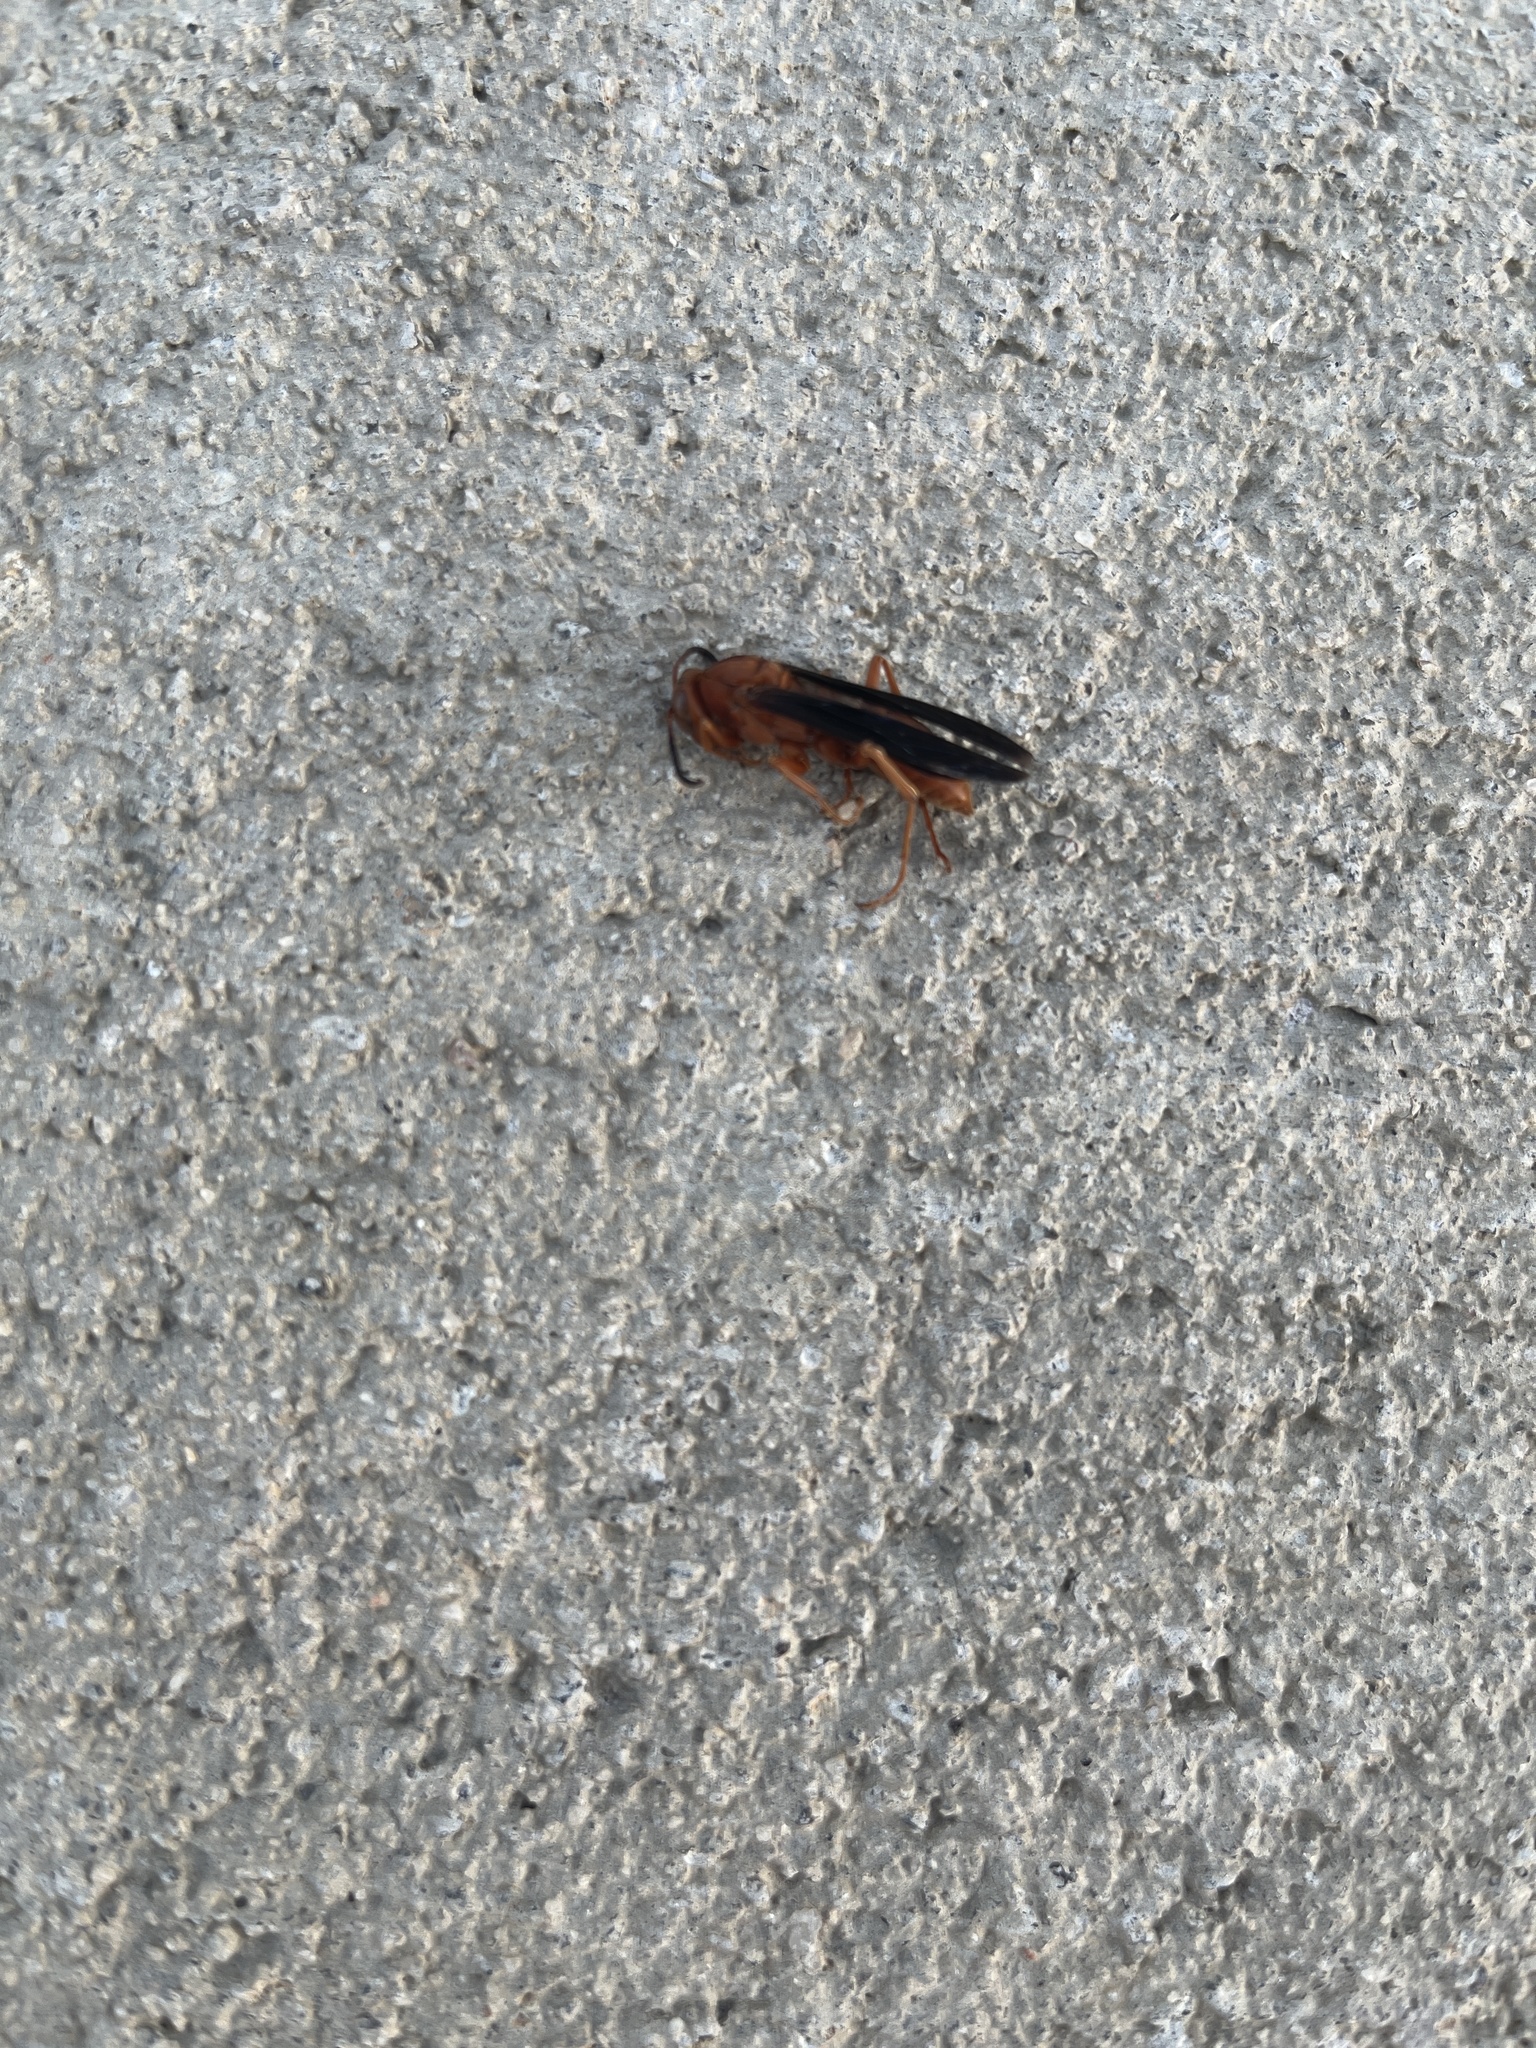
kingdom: Animalia
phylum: Arthropoda
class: Insecta
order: Hymenoptera
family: Vespidae
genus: Fuscopolistes
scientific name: Fuscopolistes
